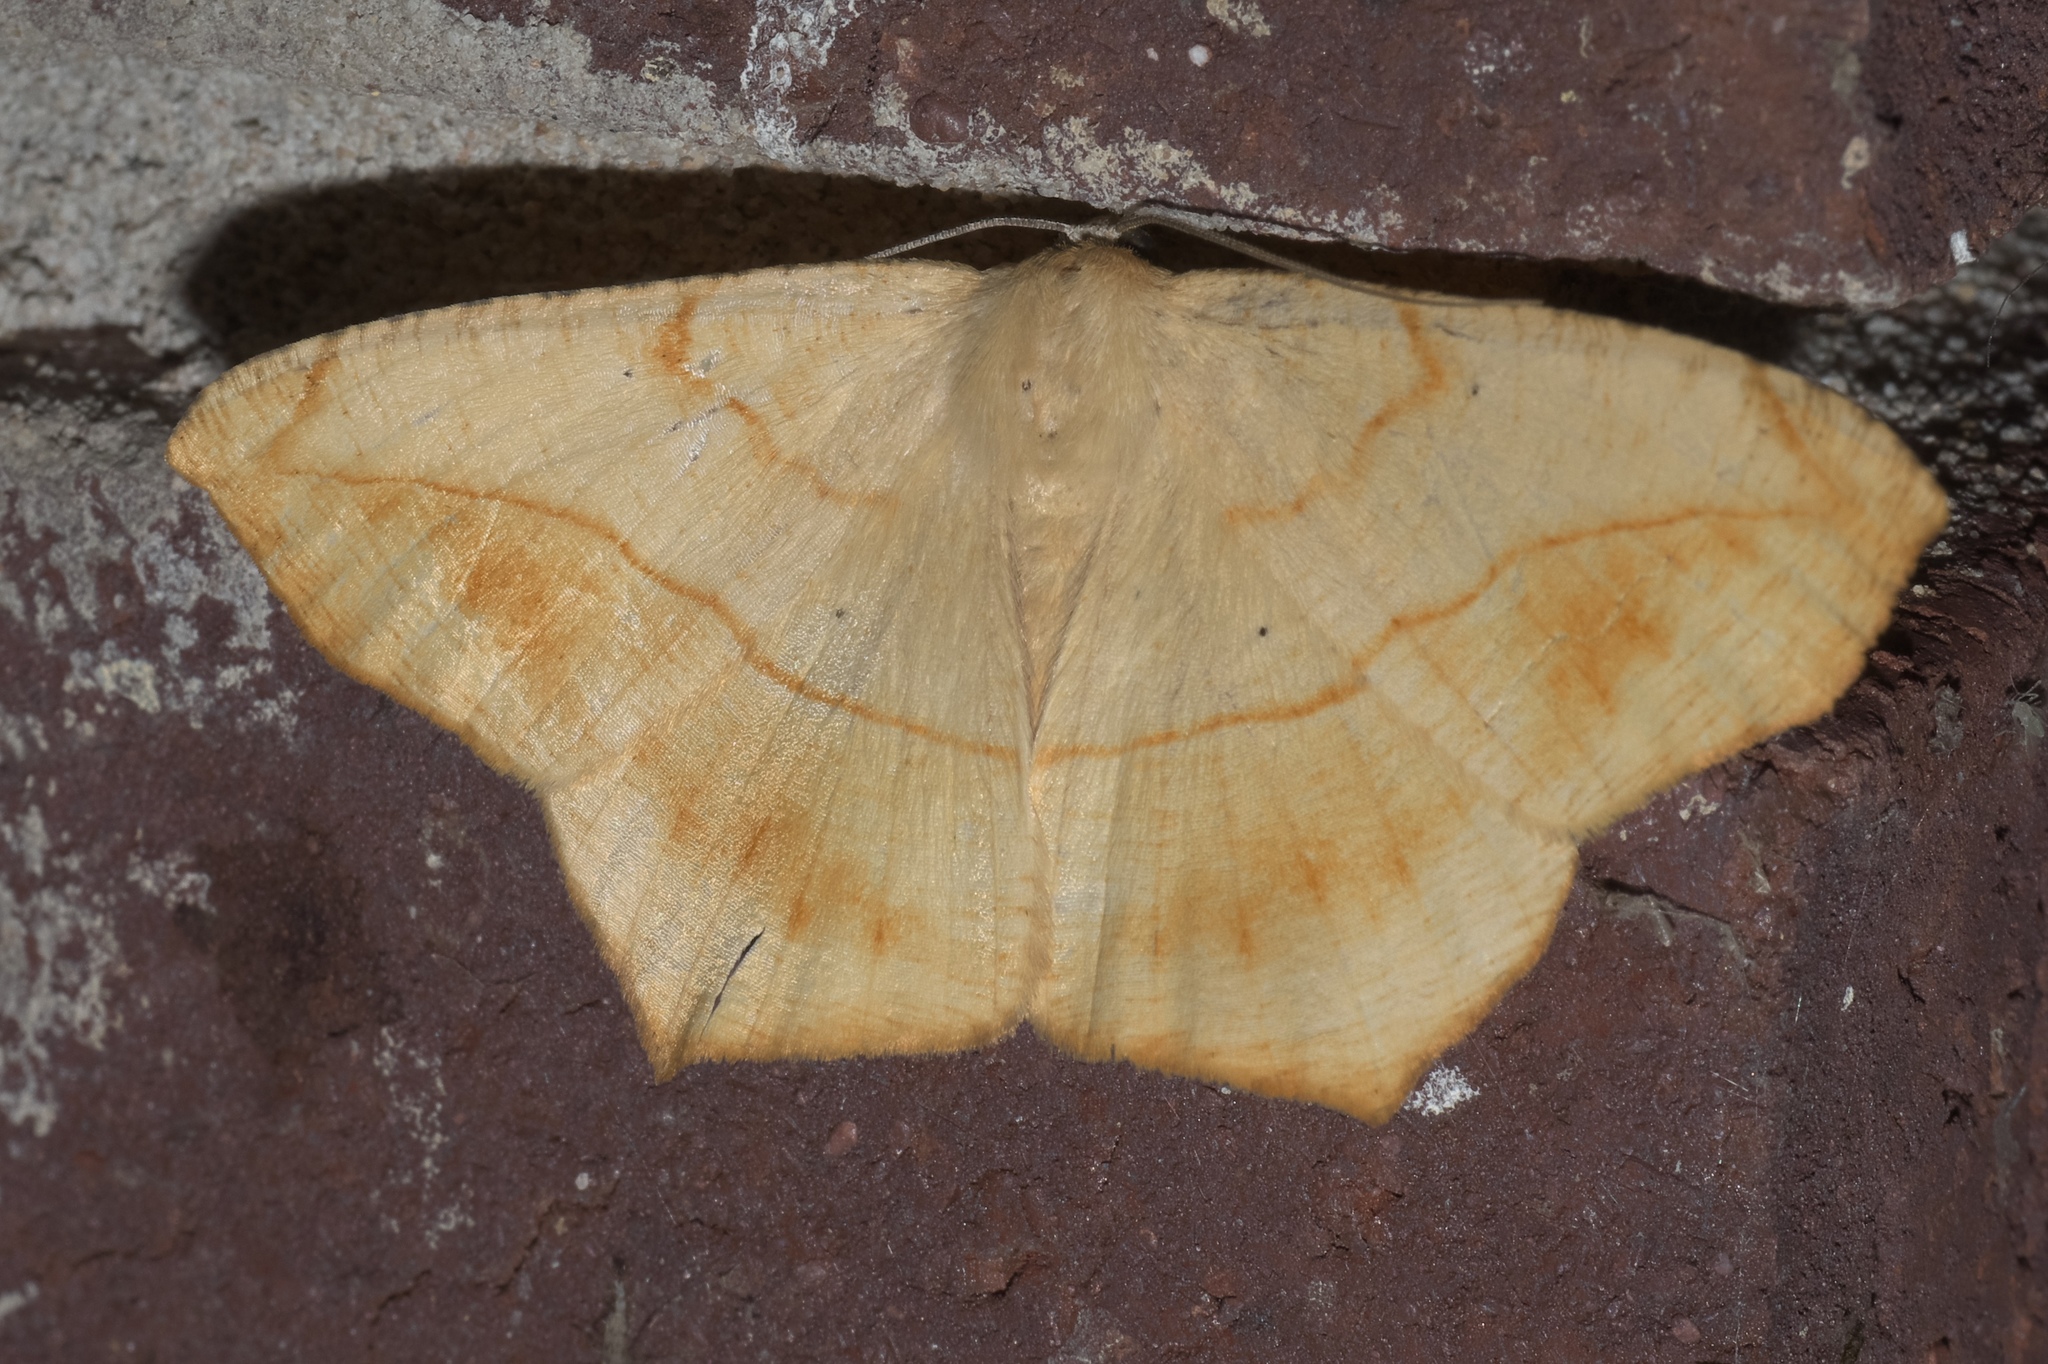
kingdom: Animalia
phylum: Arthropoda
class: Insecta
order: Lepidoptera
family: Geometridae
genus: Prochoerodes
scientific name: Prochoerodes lineola
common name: Large maple spanworm
